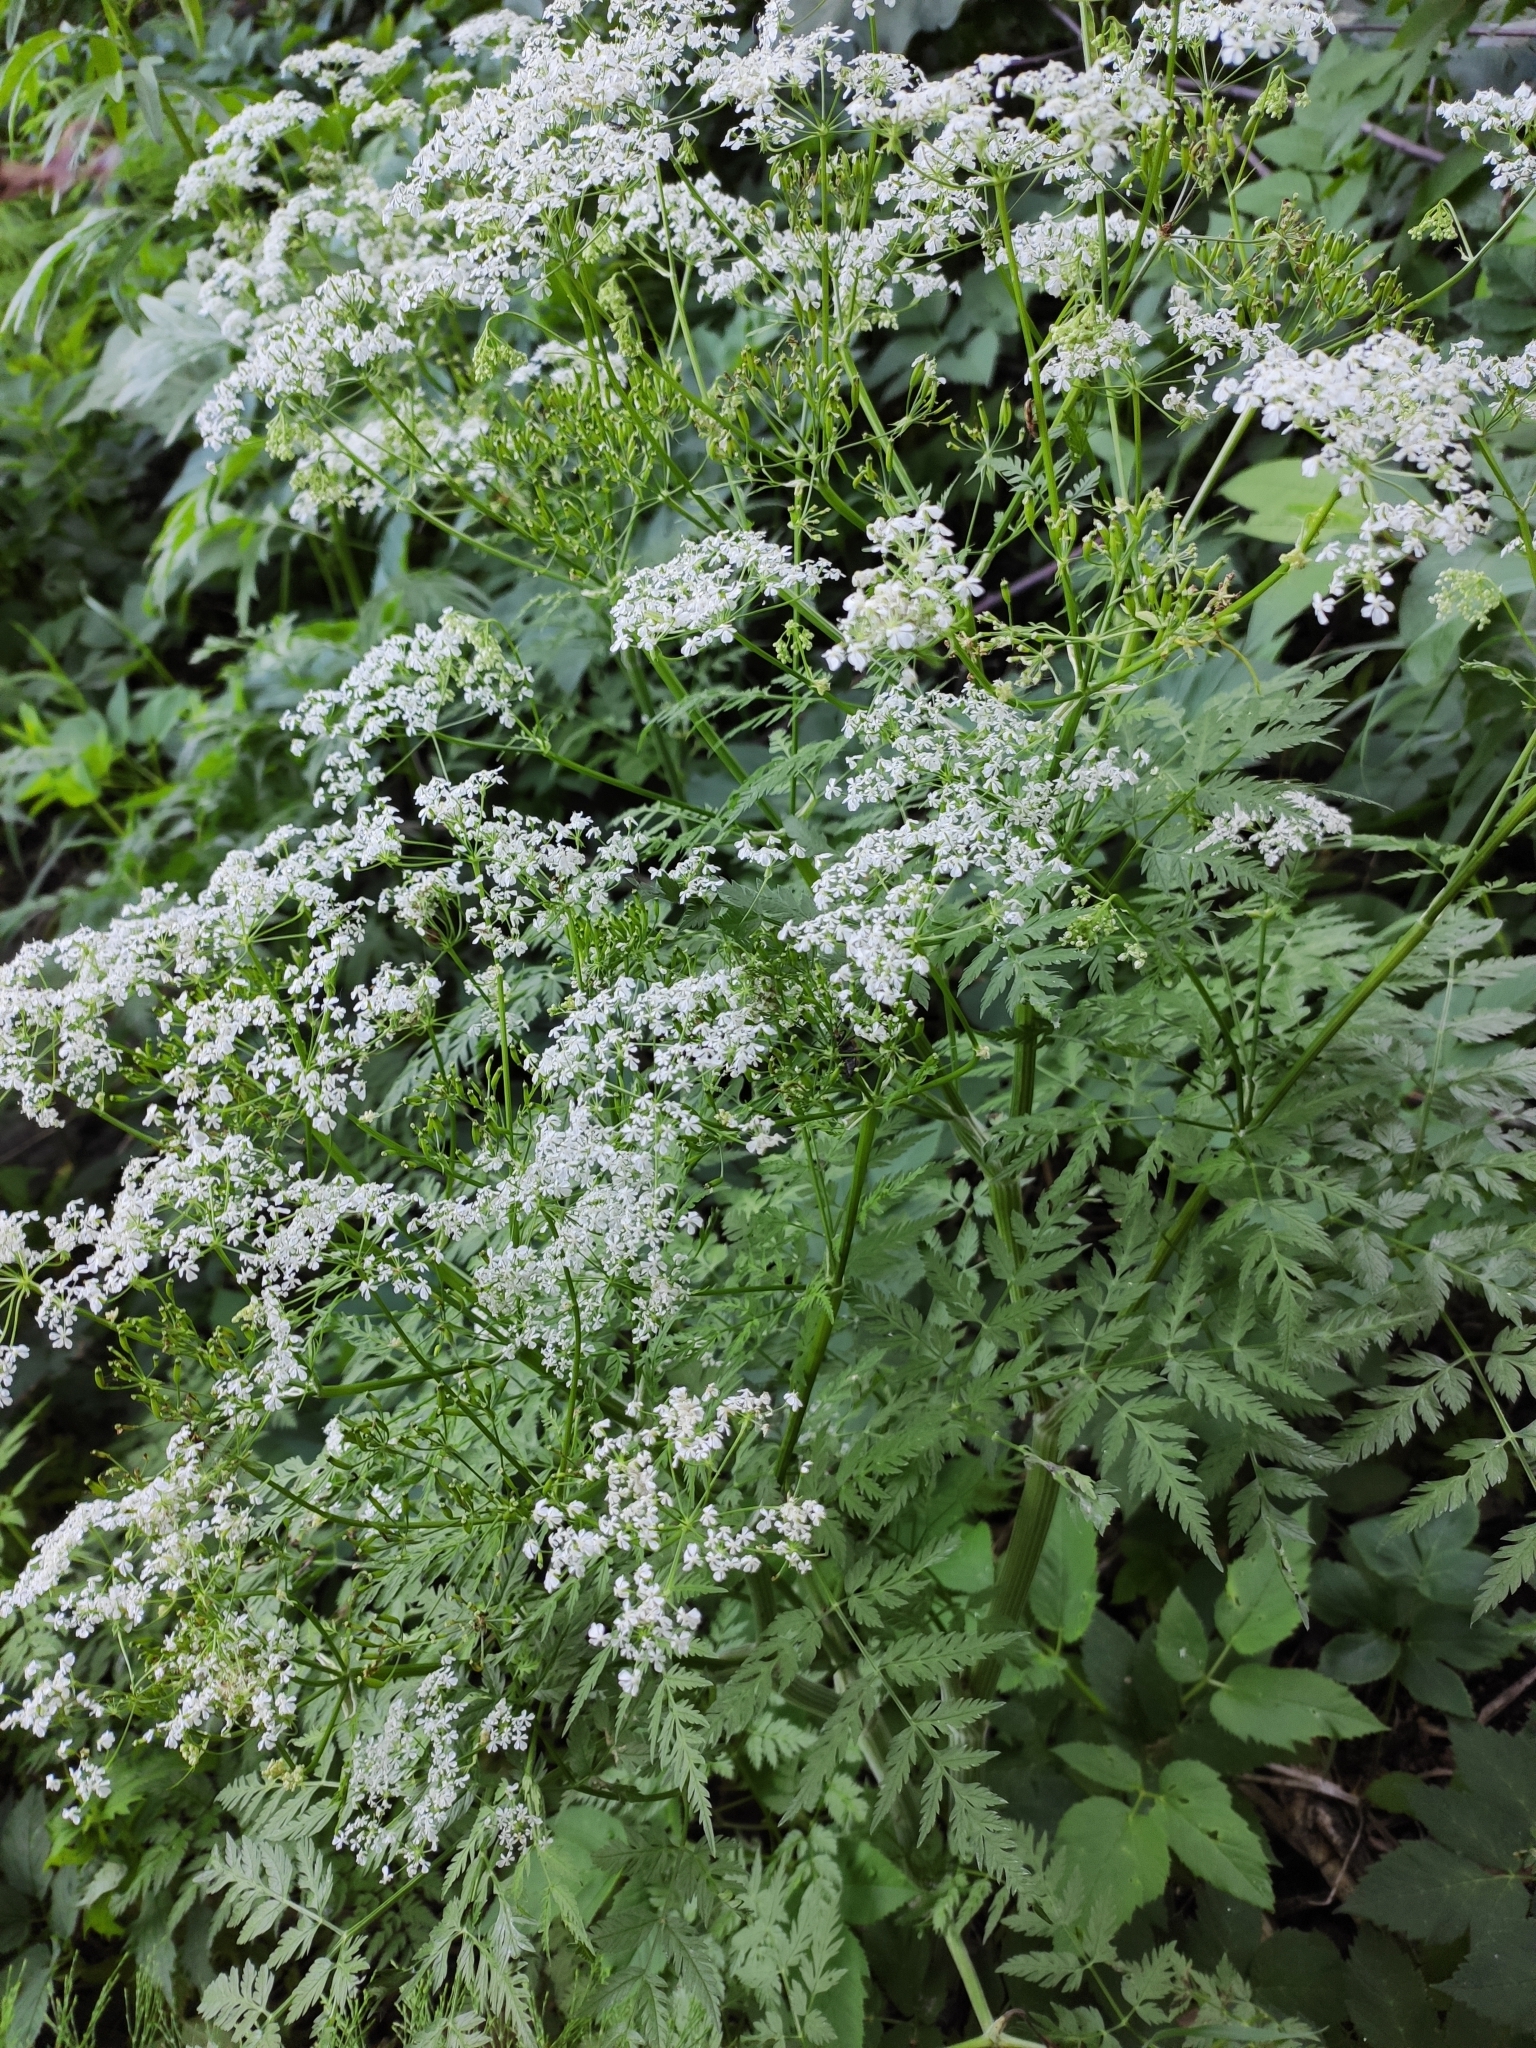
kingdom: Plantae
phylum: Tracheophyta
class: Magnoliopsida
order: Apiales
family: Apiaceae
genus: Anthriscus
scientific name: Anthriscus sylvestris
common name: Cow parsley
